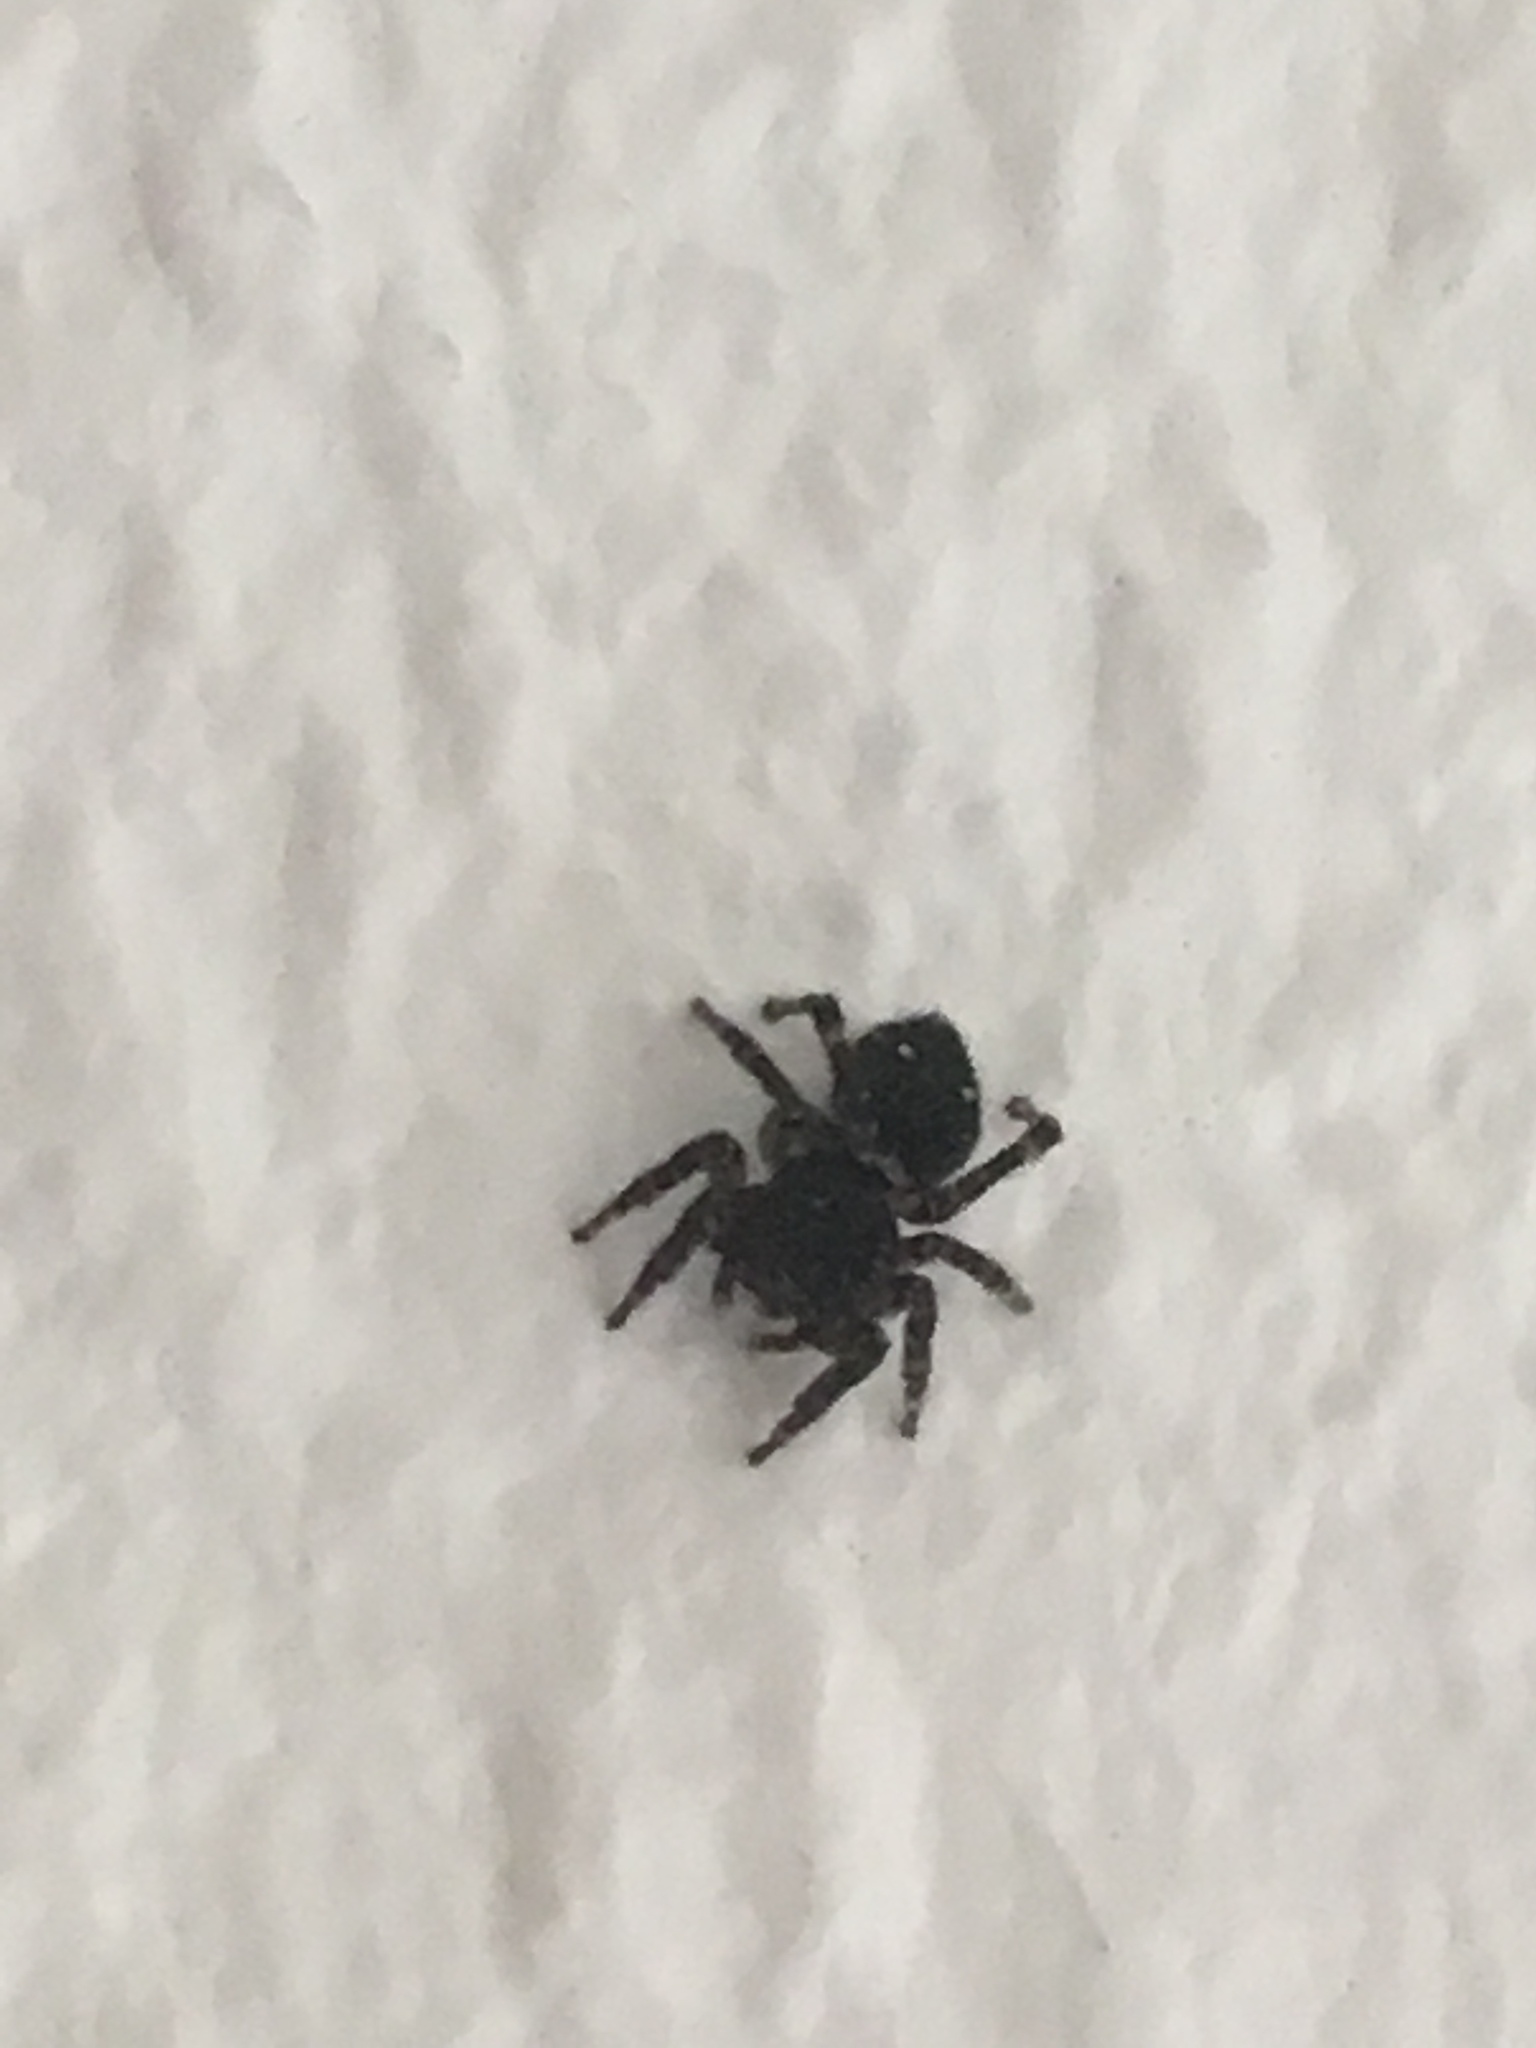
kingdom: Animalia
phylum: Arthropoda
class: Arachnida
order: Araneae
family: Salticidae
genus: Attulus
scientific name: Attulus pubescens
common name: Jumping spider
